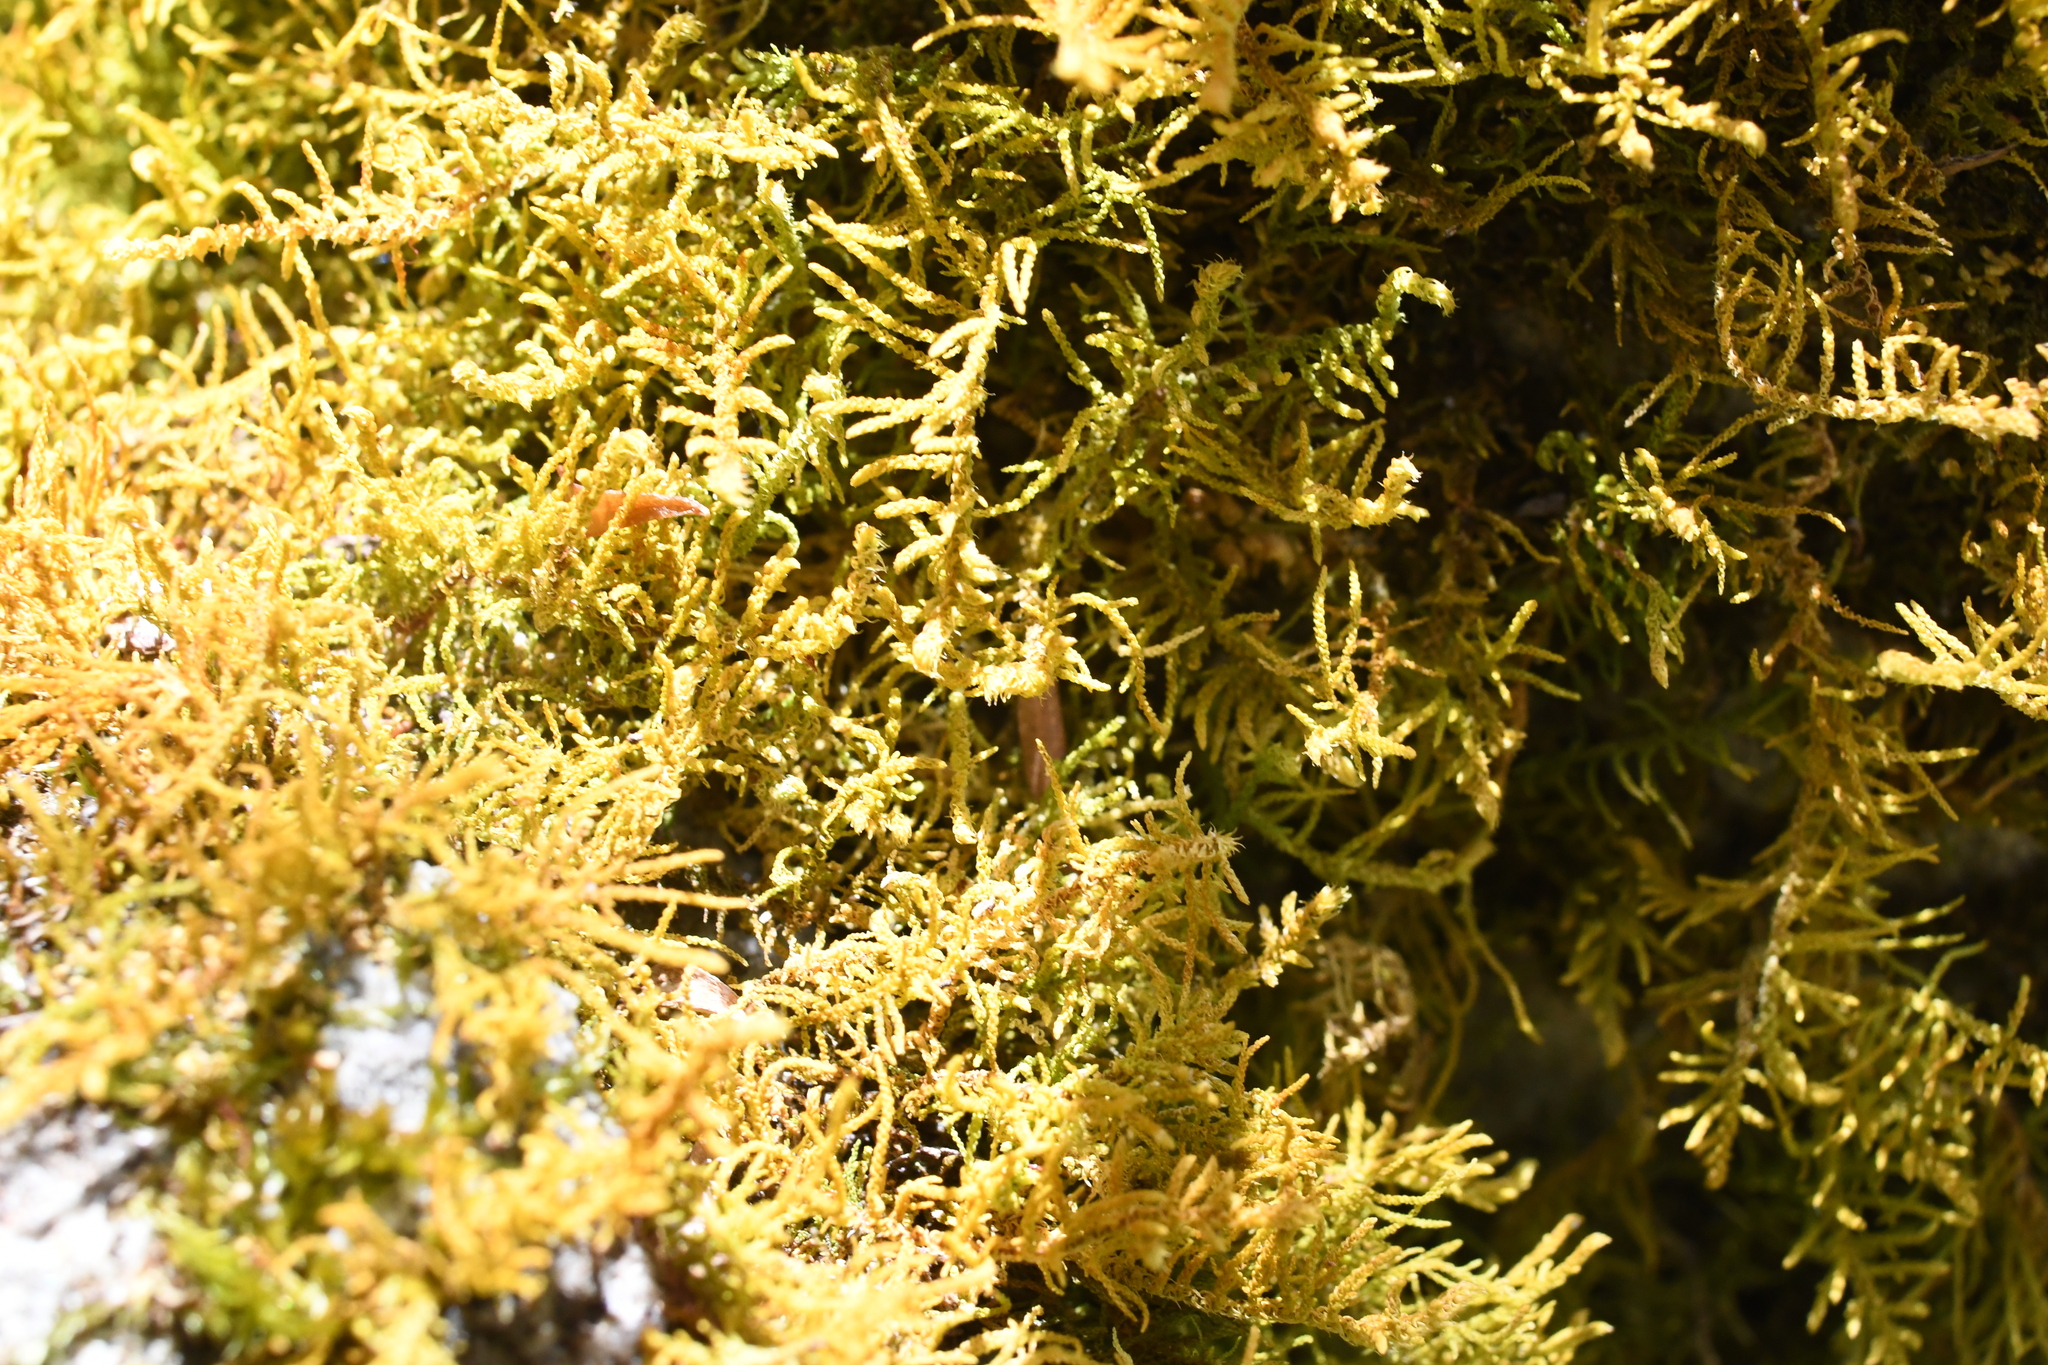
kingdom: Plantae
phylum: Bryophyta
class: Bryopsida
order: Hypnales
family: Thuidiaceae
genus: Thuidiopsis
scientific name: Thuidiopsis sparsa
